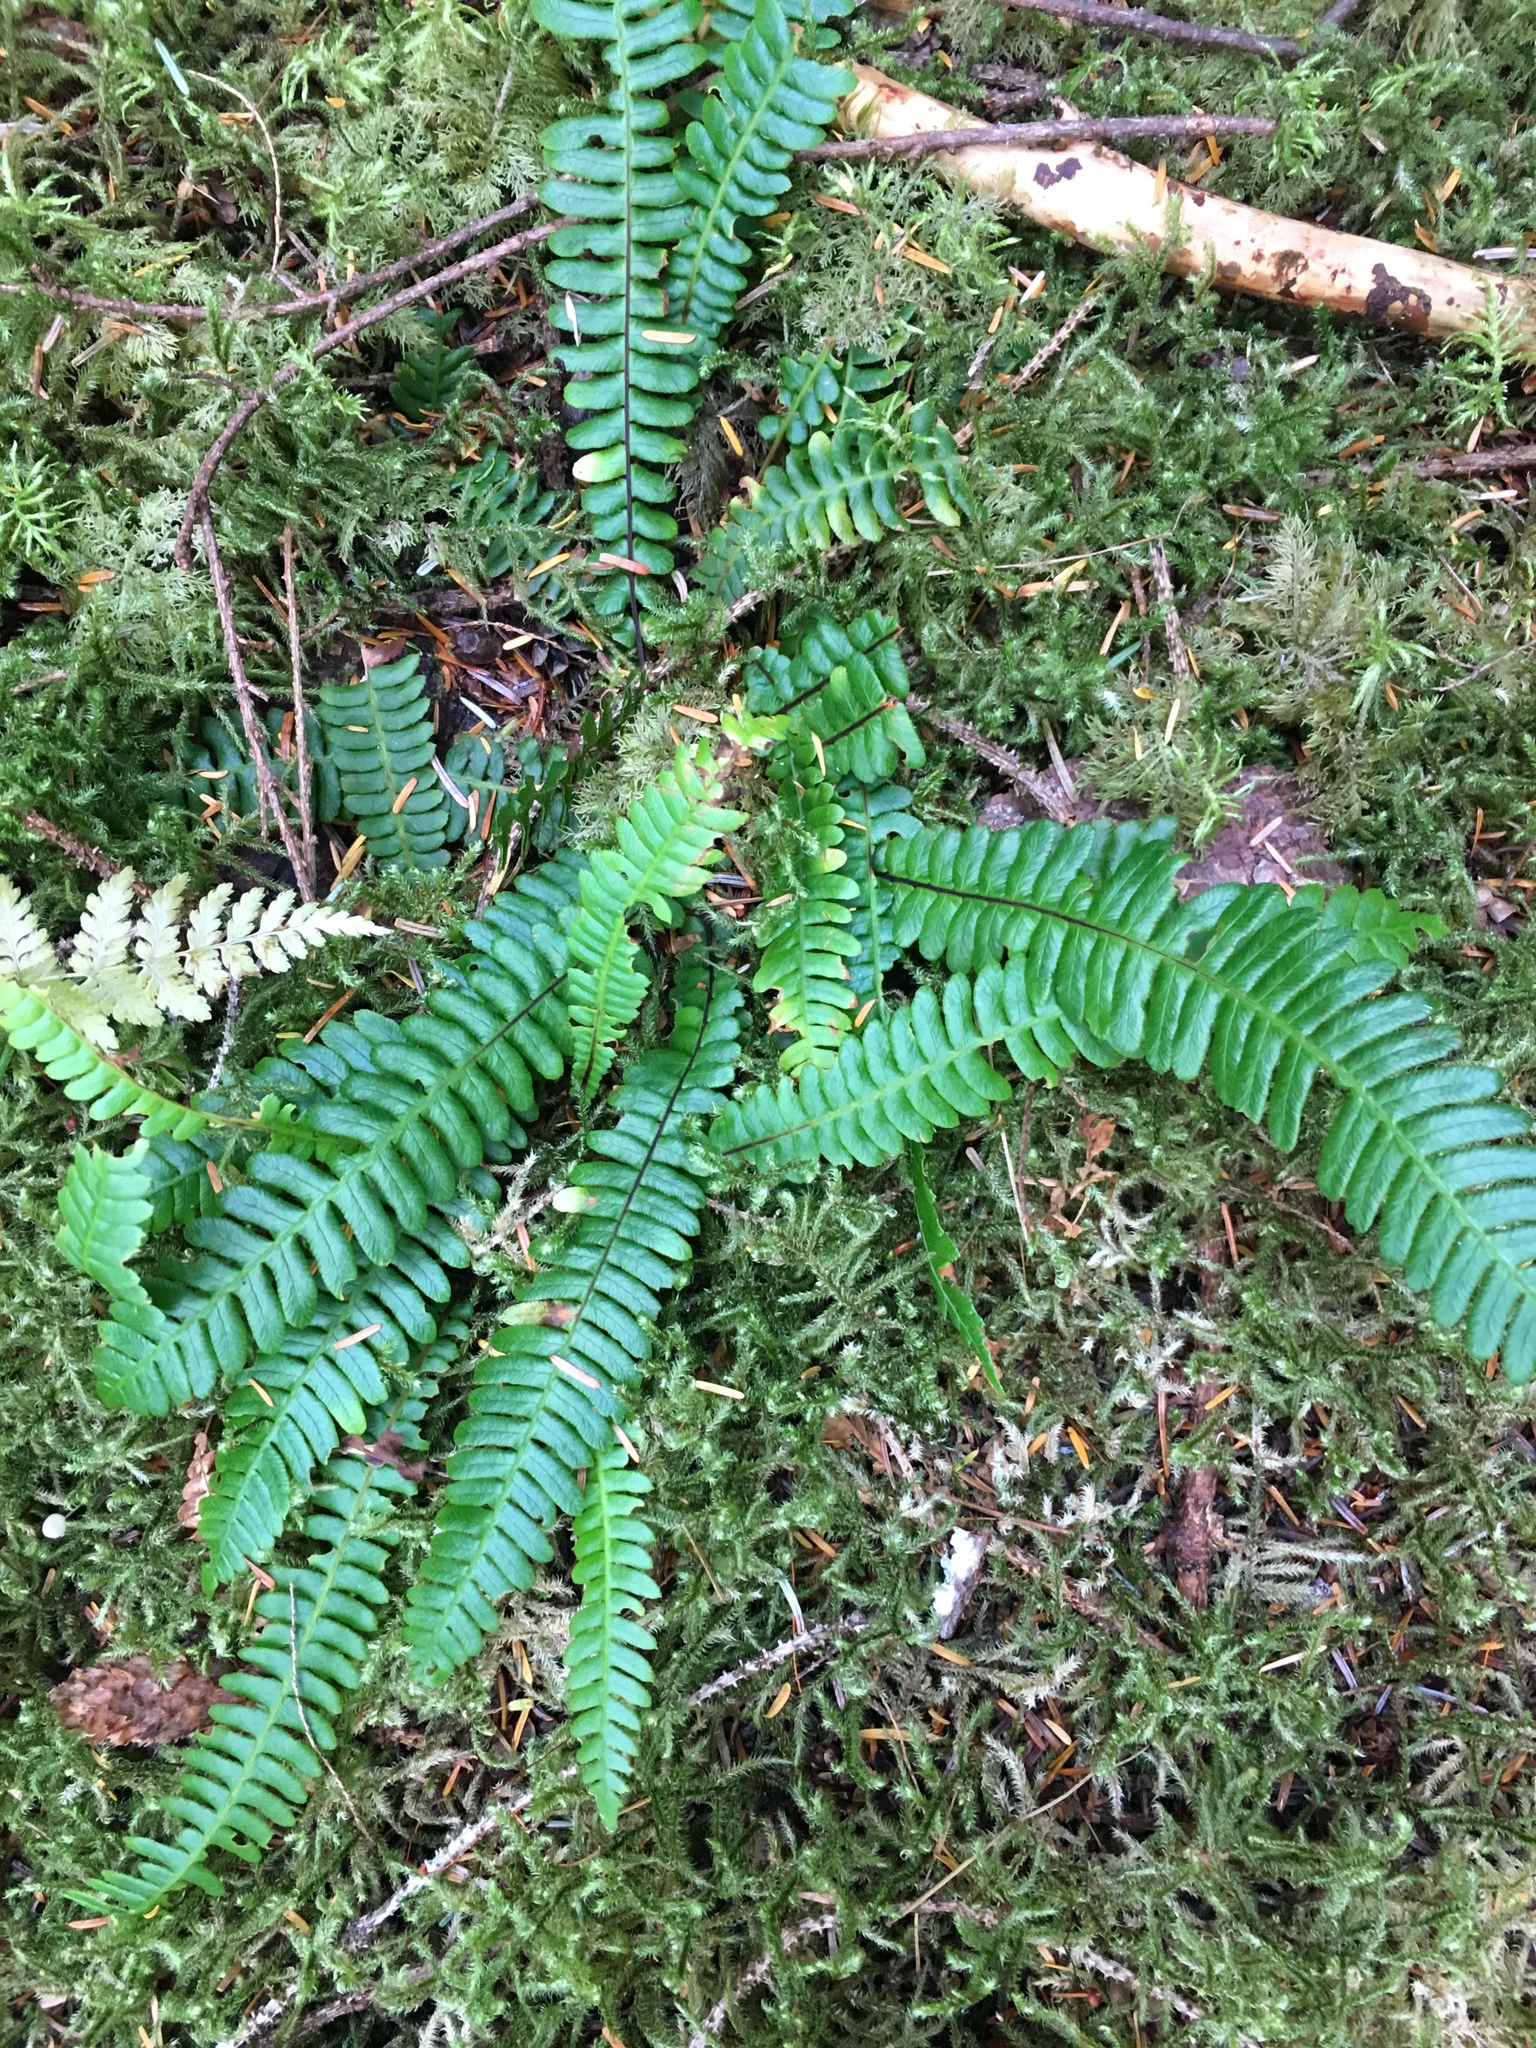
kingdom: Plantae
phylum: Tracheophyta
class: Polypodiopsida
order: Polypodiales
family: Blechnaceae
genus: Struthiopteris
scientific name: Struthiopteris spicant
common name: Deer fern
